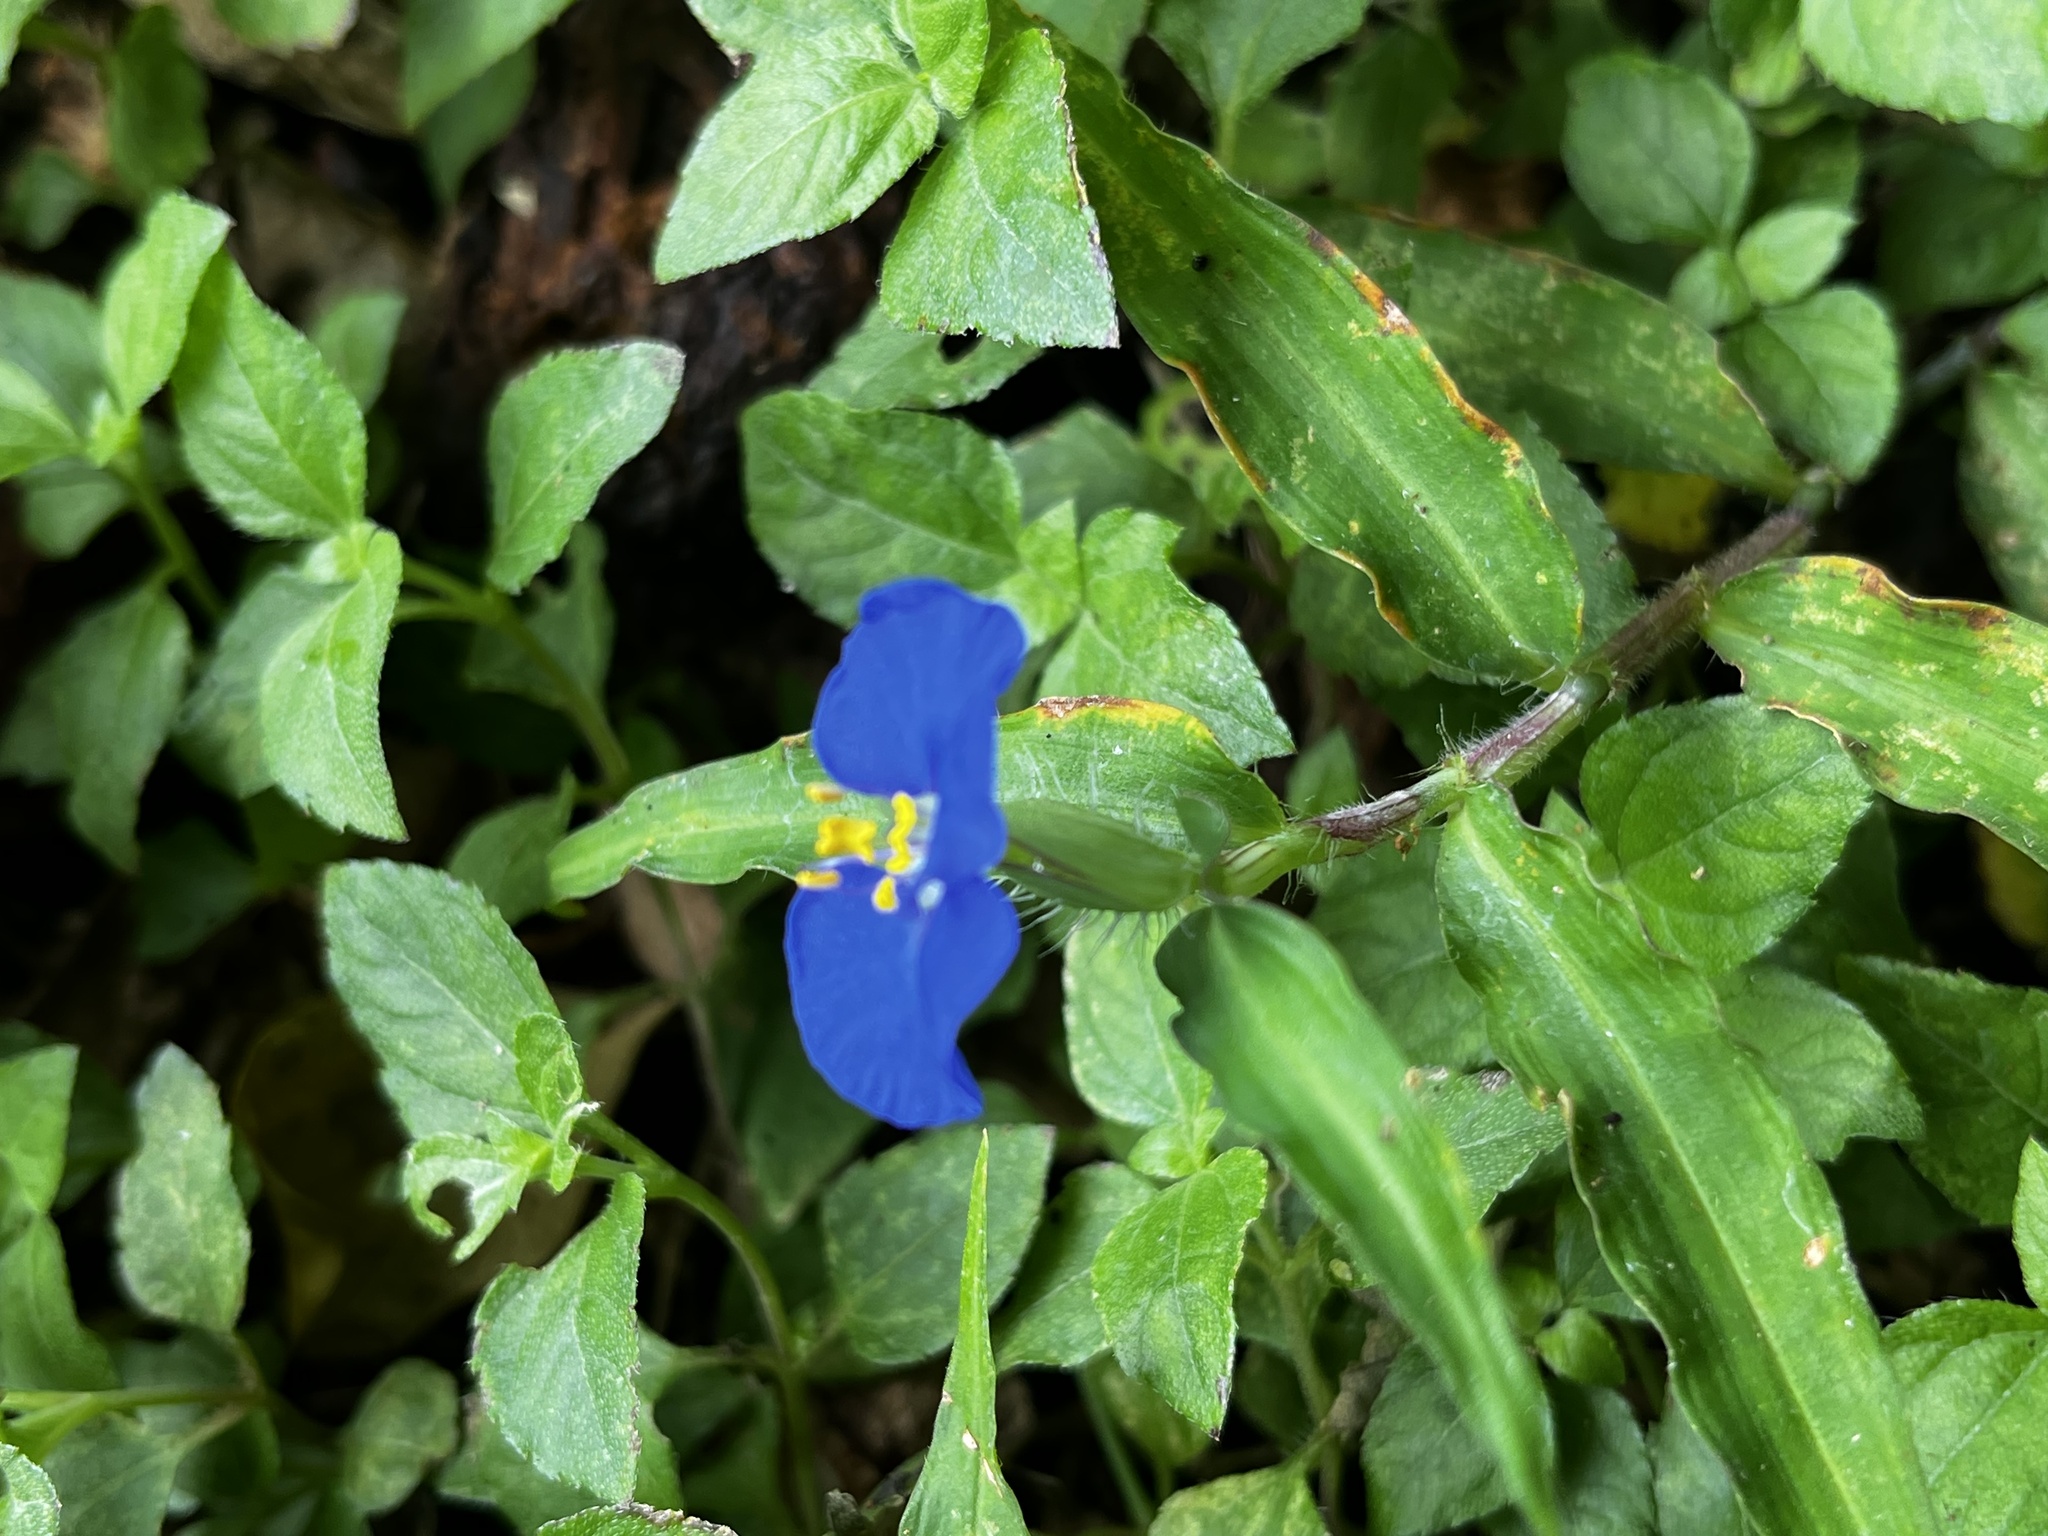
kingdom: Plantae
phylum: Tracheophyta
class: Liliopsida
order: Commelinales
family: Commelinaceae
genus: Commelina
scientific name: Commelina auriculata
